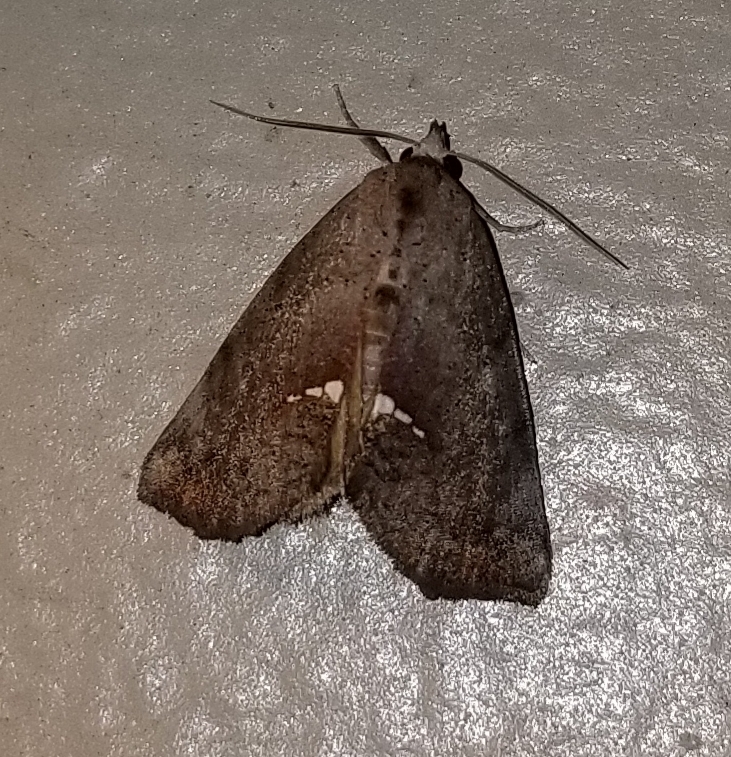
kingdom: Animalia
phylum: Arthropoda
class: Insecta
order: Lepidoptera
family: Erebidae
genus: Hypsoropha
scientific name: Hypsoropha hormos
